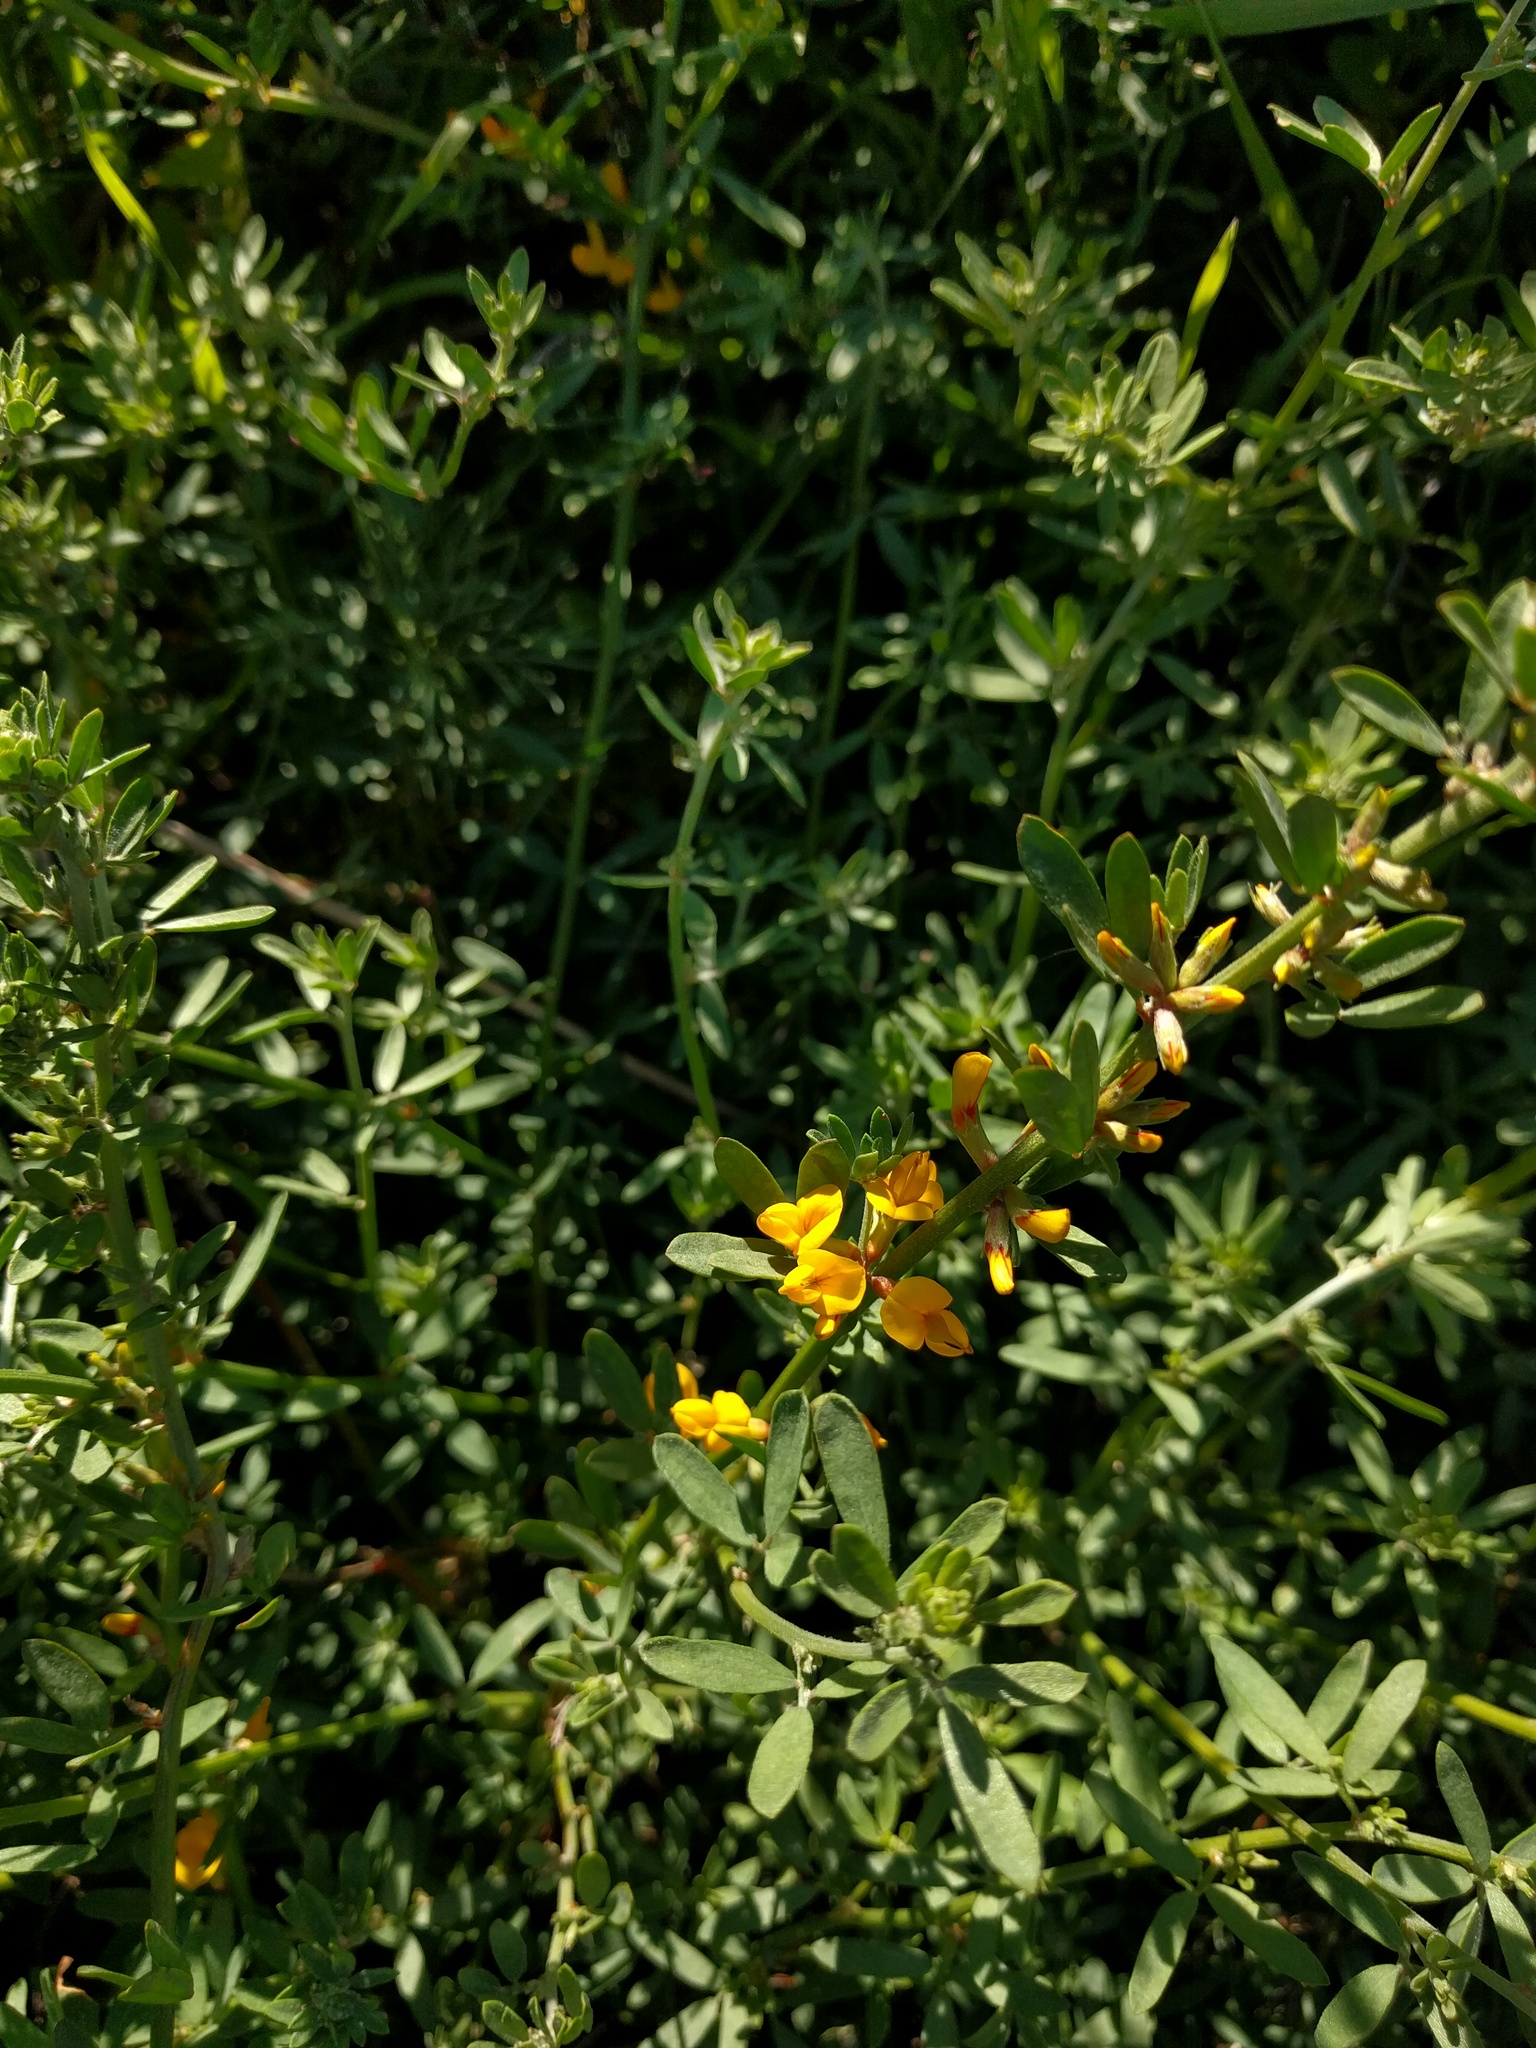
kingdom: Plantae
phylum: Tracheophyta
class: Magnoliopsida
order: Fabales
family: Fabaceae
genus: Acmispon
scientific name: Acmispon glaber
